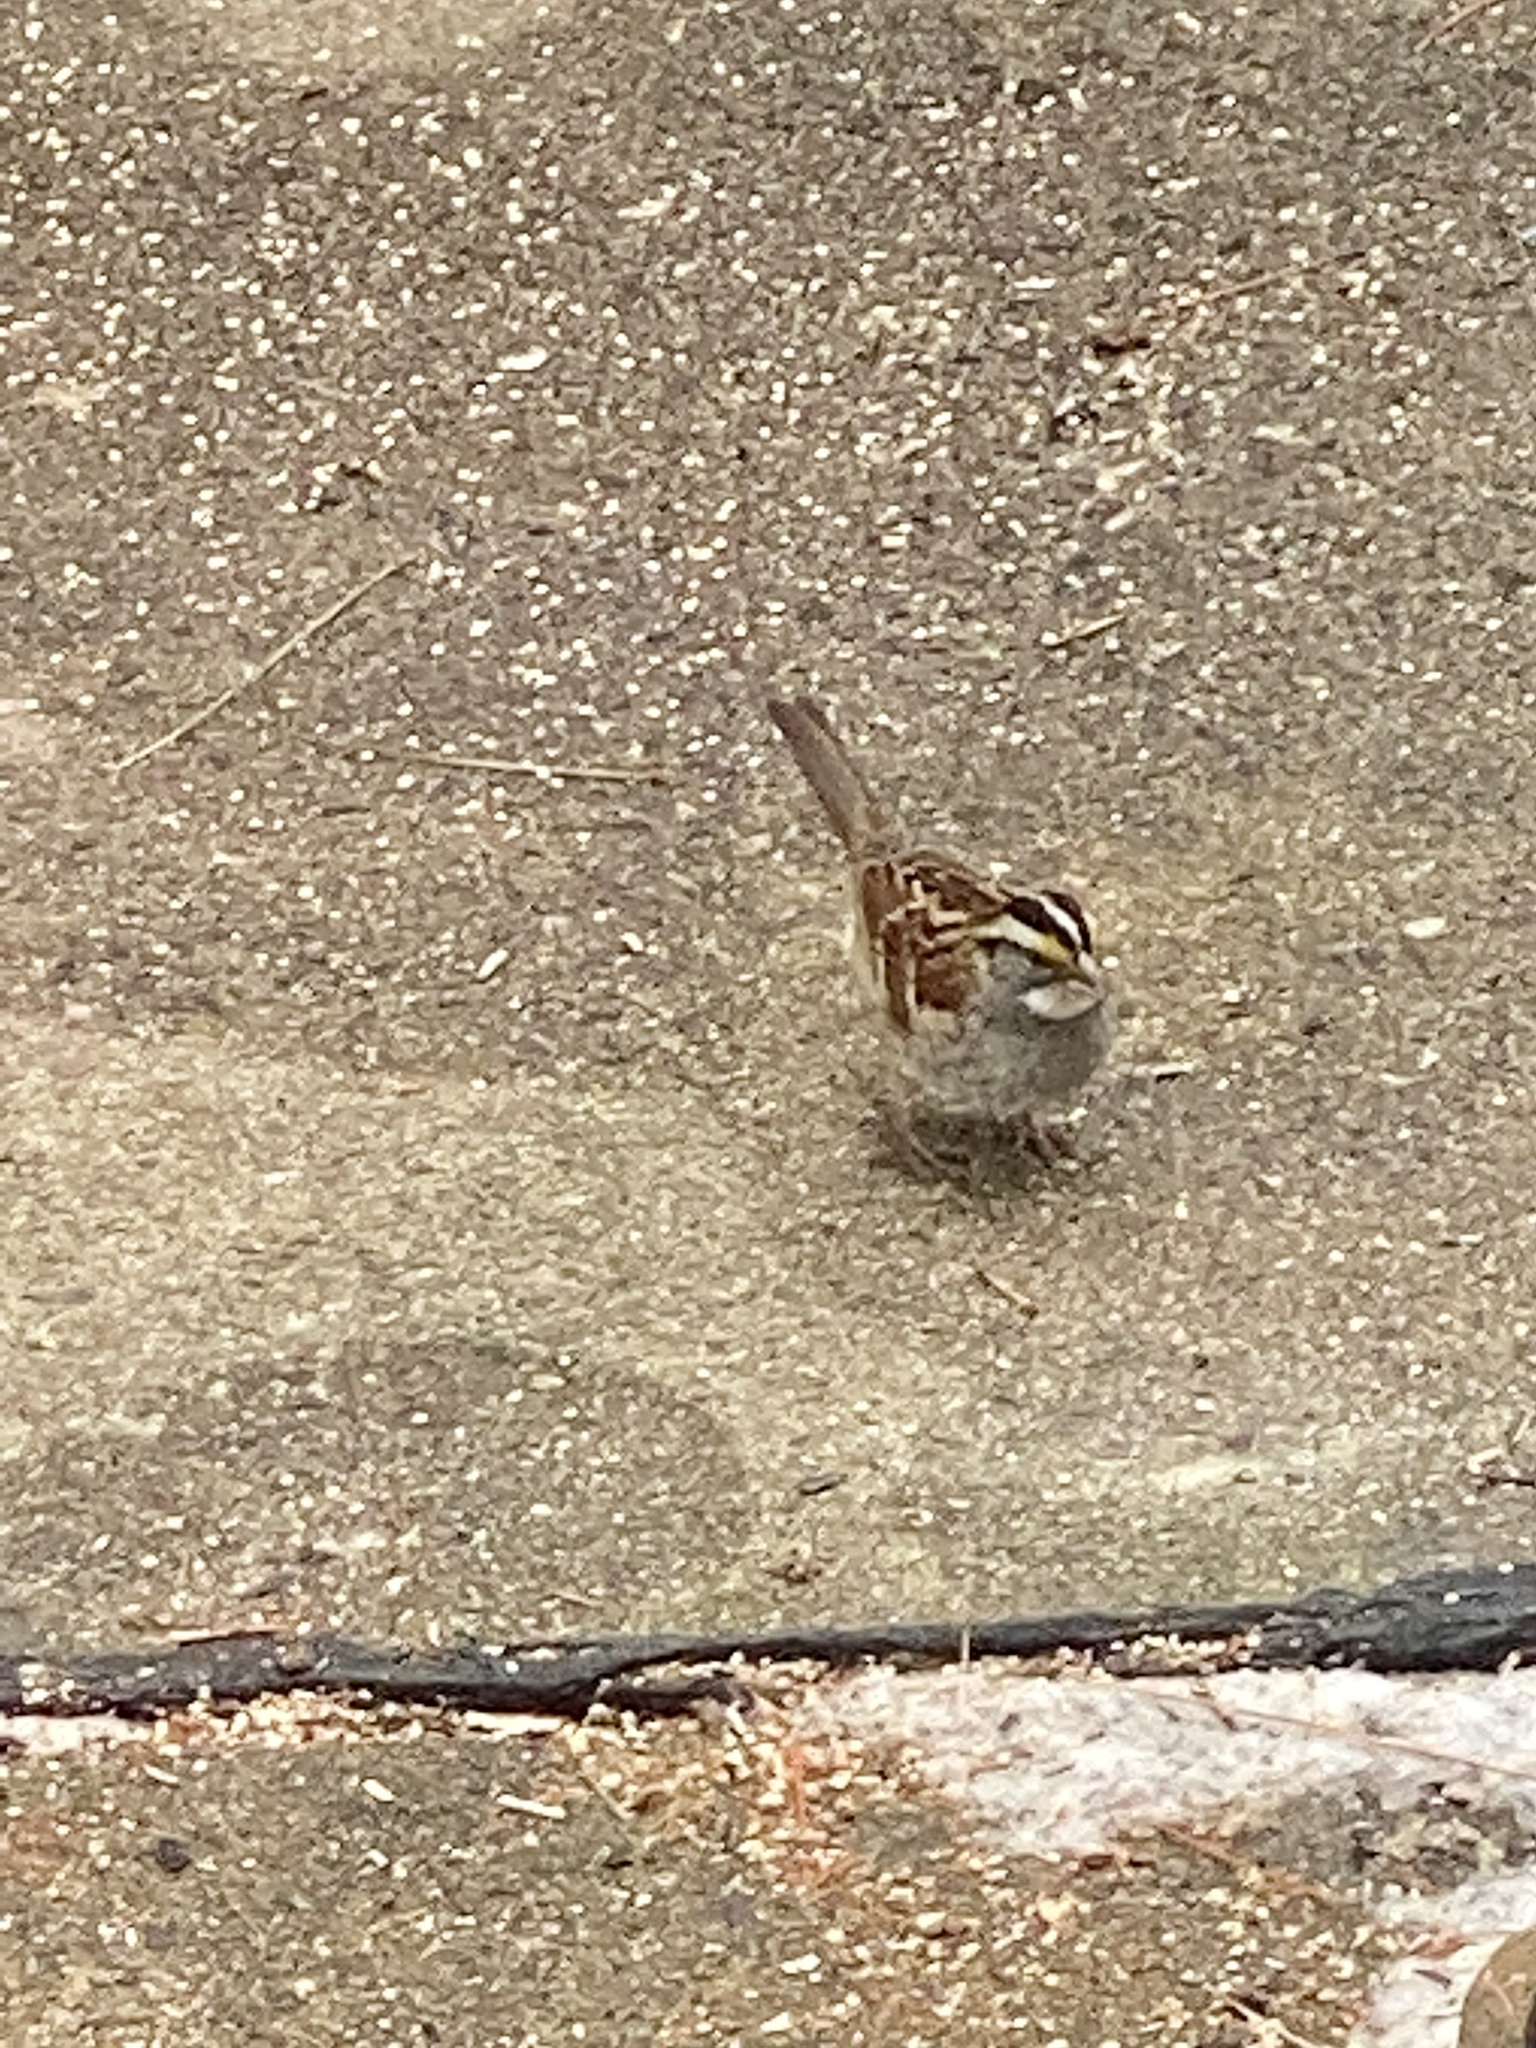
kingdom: Animalia
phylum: Chordata
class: Aves
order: Passeriformes
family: Passerellidae
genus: Zonotrichia
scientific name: Zonotrichia albicollis
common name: White-throated sparrow
